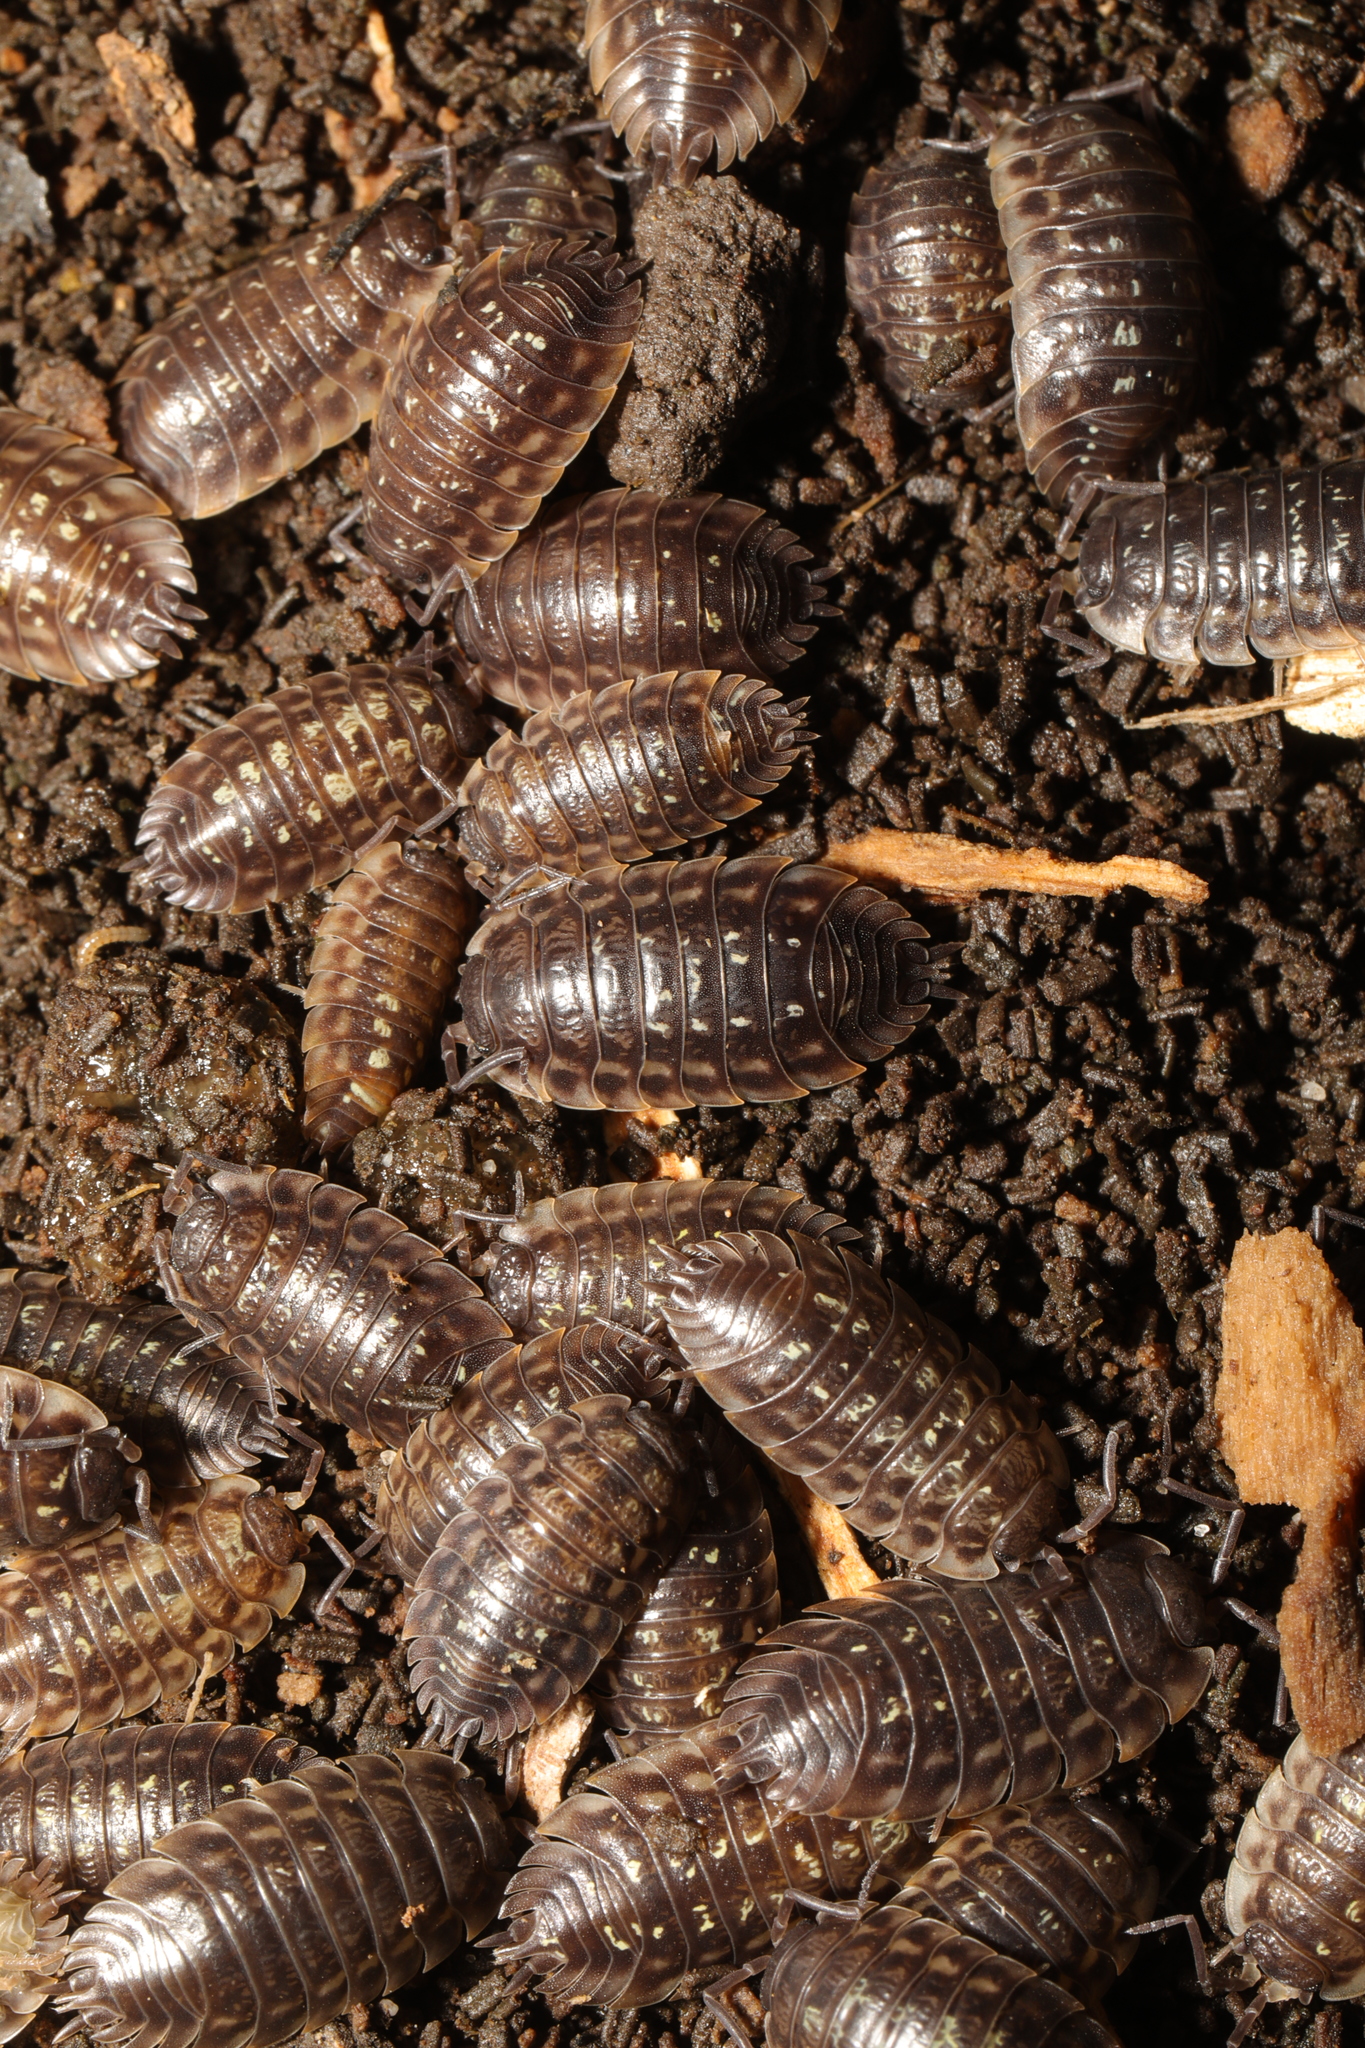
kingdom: Animalia
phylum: Arthropoda
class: Malacostraca
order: Isopoda
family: Oniscidae
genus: Oniscus
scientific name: Oniscus asellus
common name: Common shiny woodlouse
